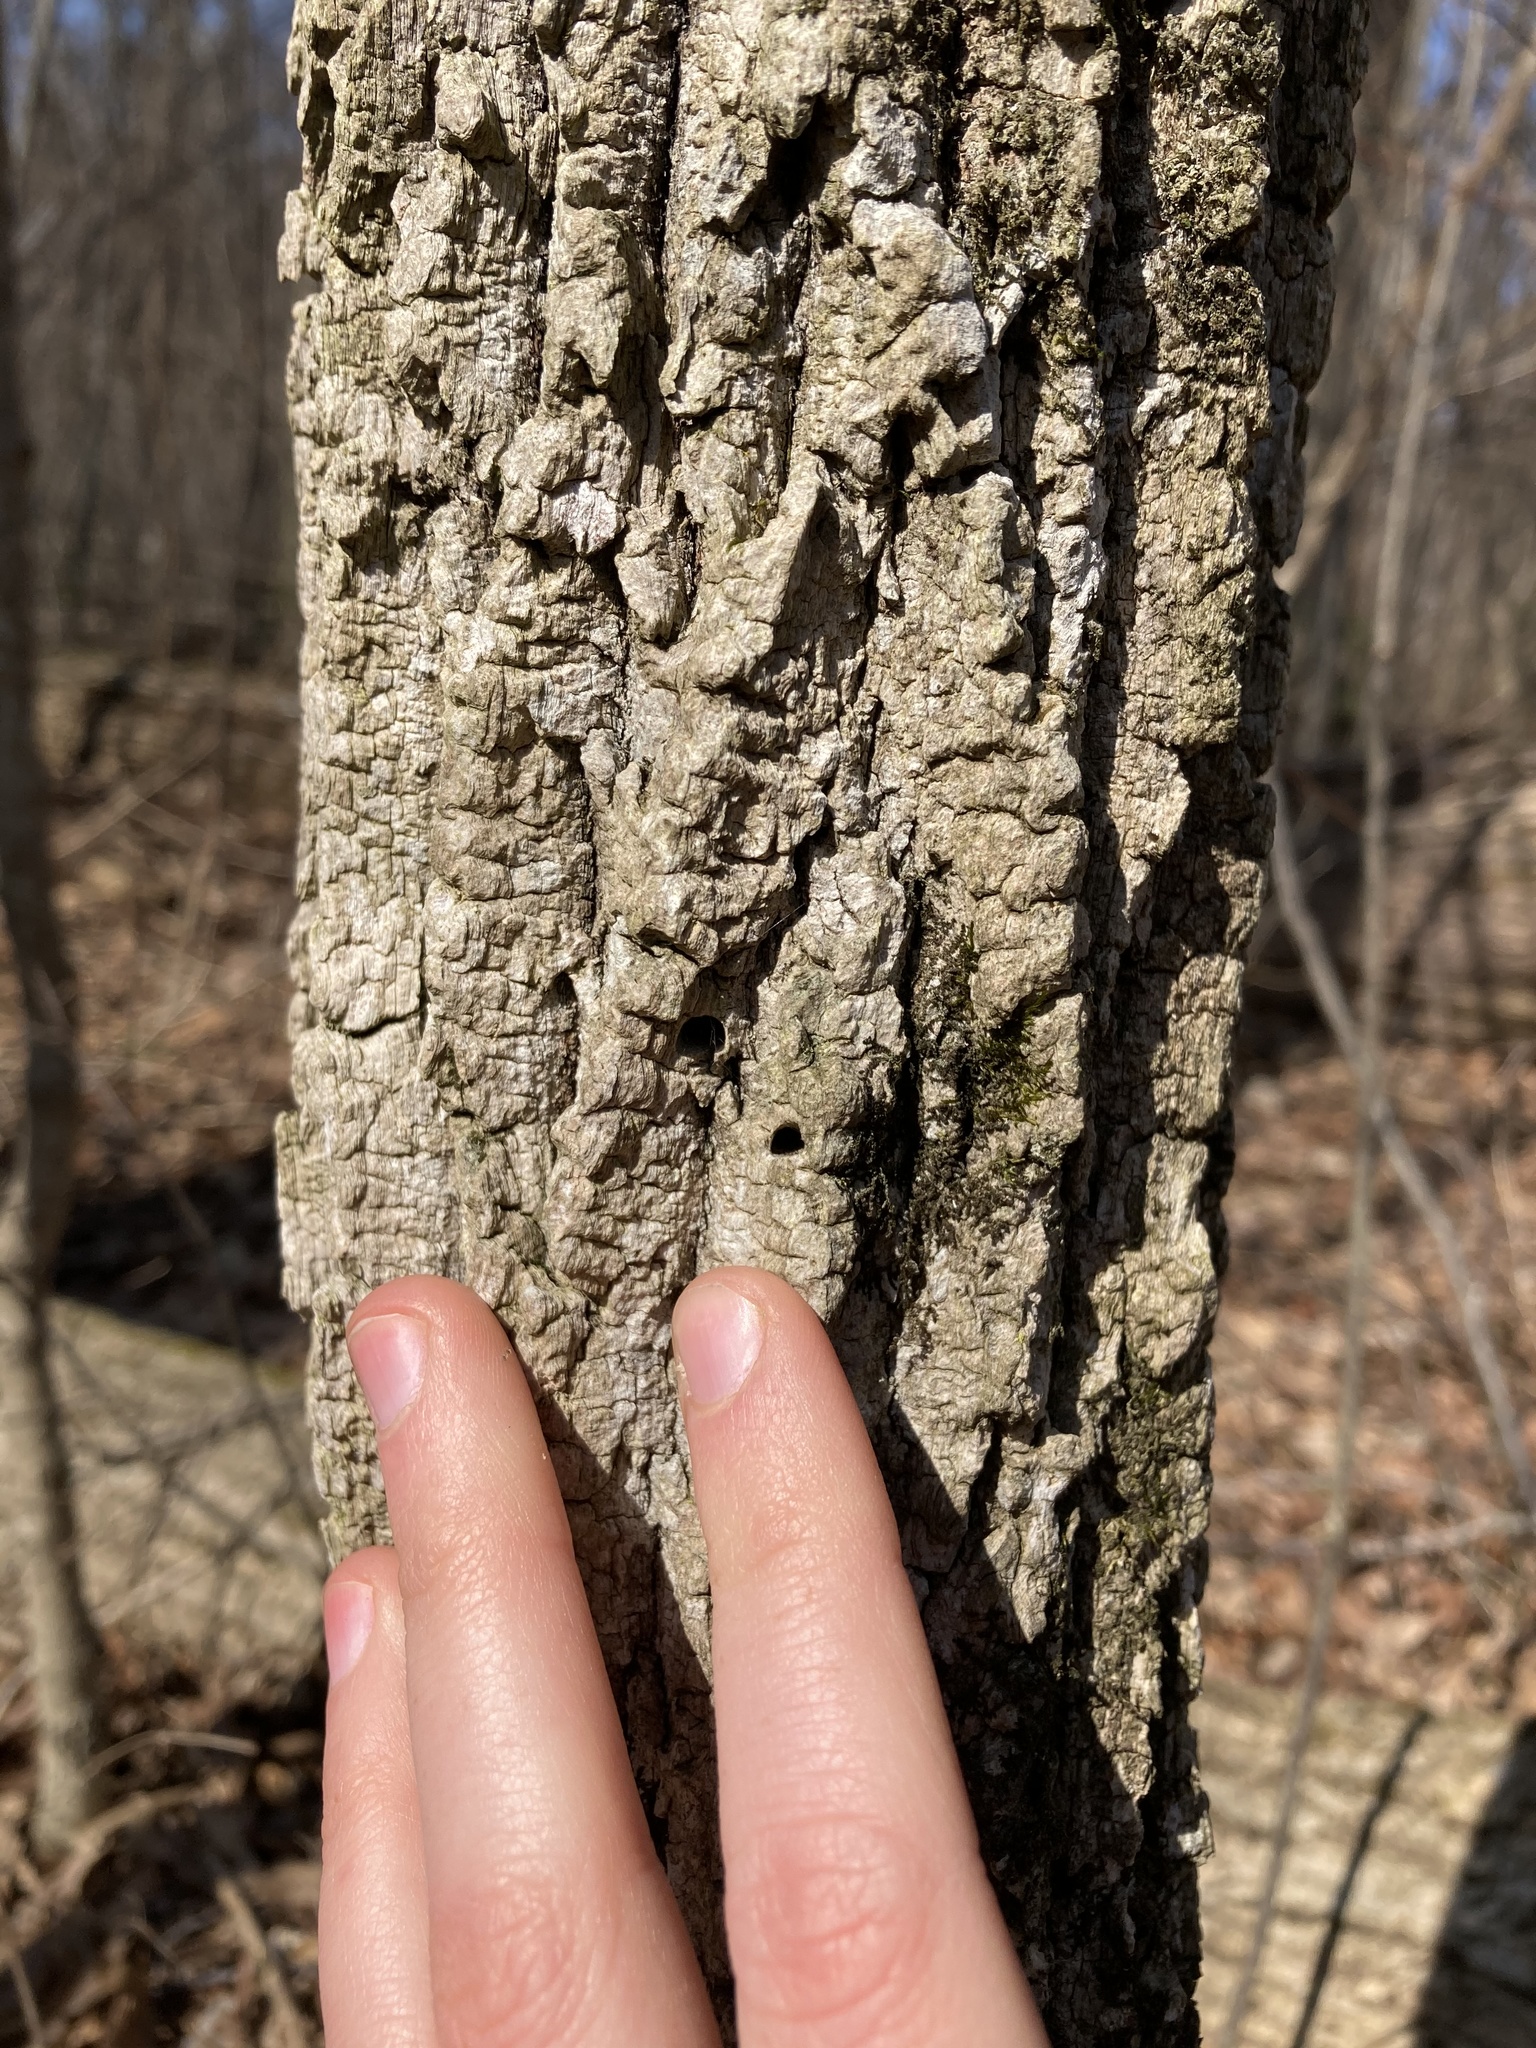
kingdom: Plantae
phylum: Tracheophyta
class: Magnoliopsida
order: Lamiales
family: Oleaceae
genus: Fraxinus
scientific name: Fraxinus nigra
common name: Black ash
